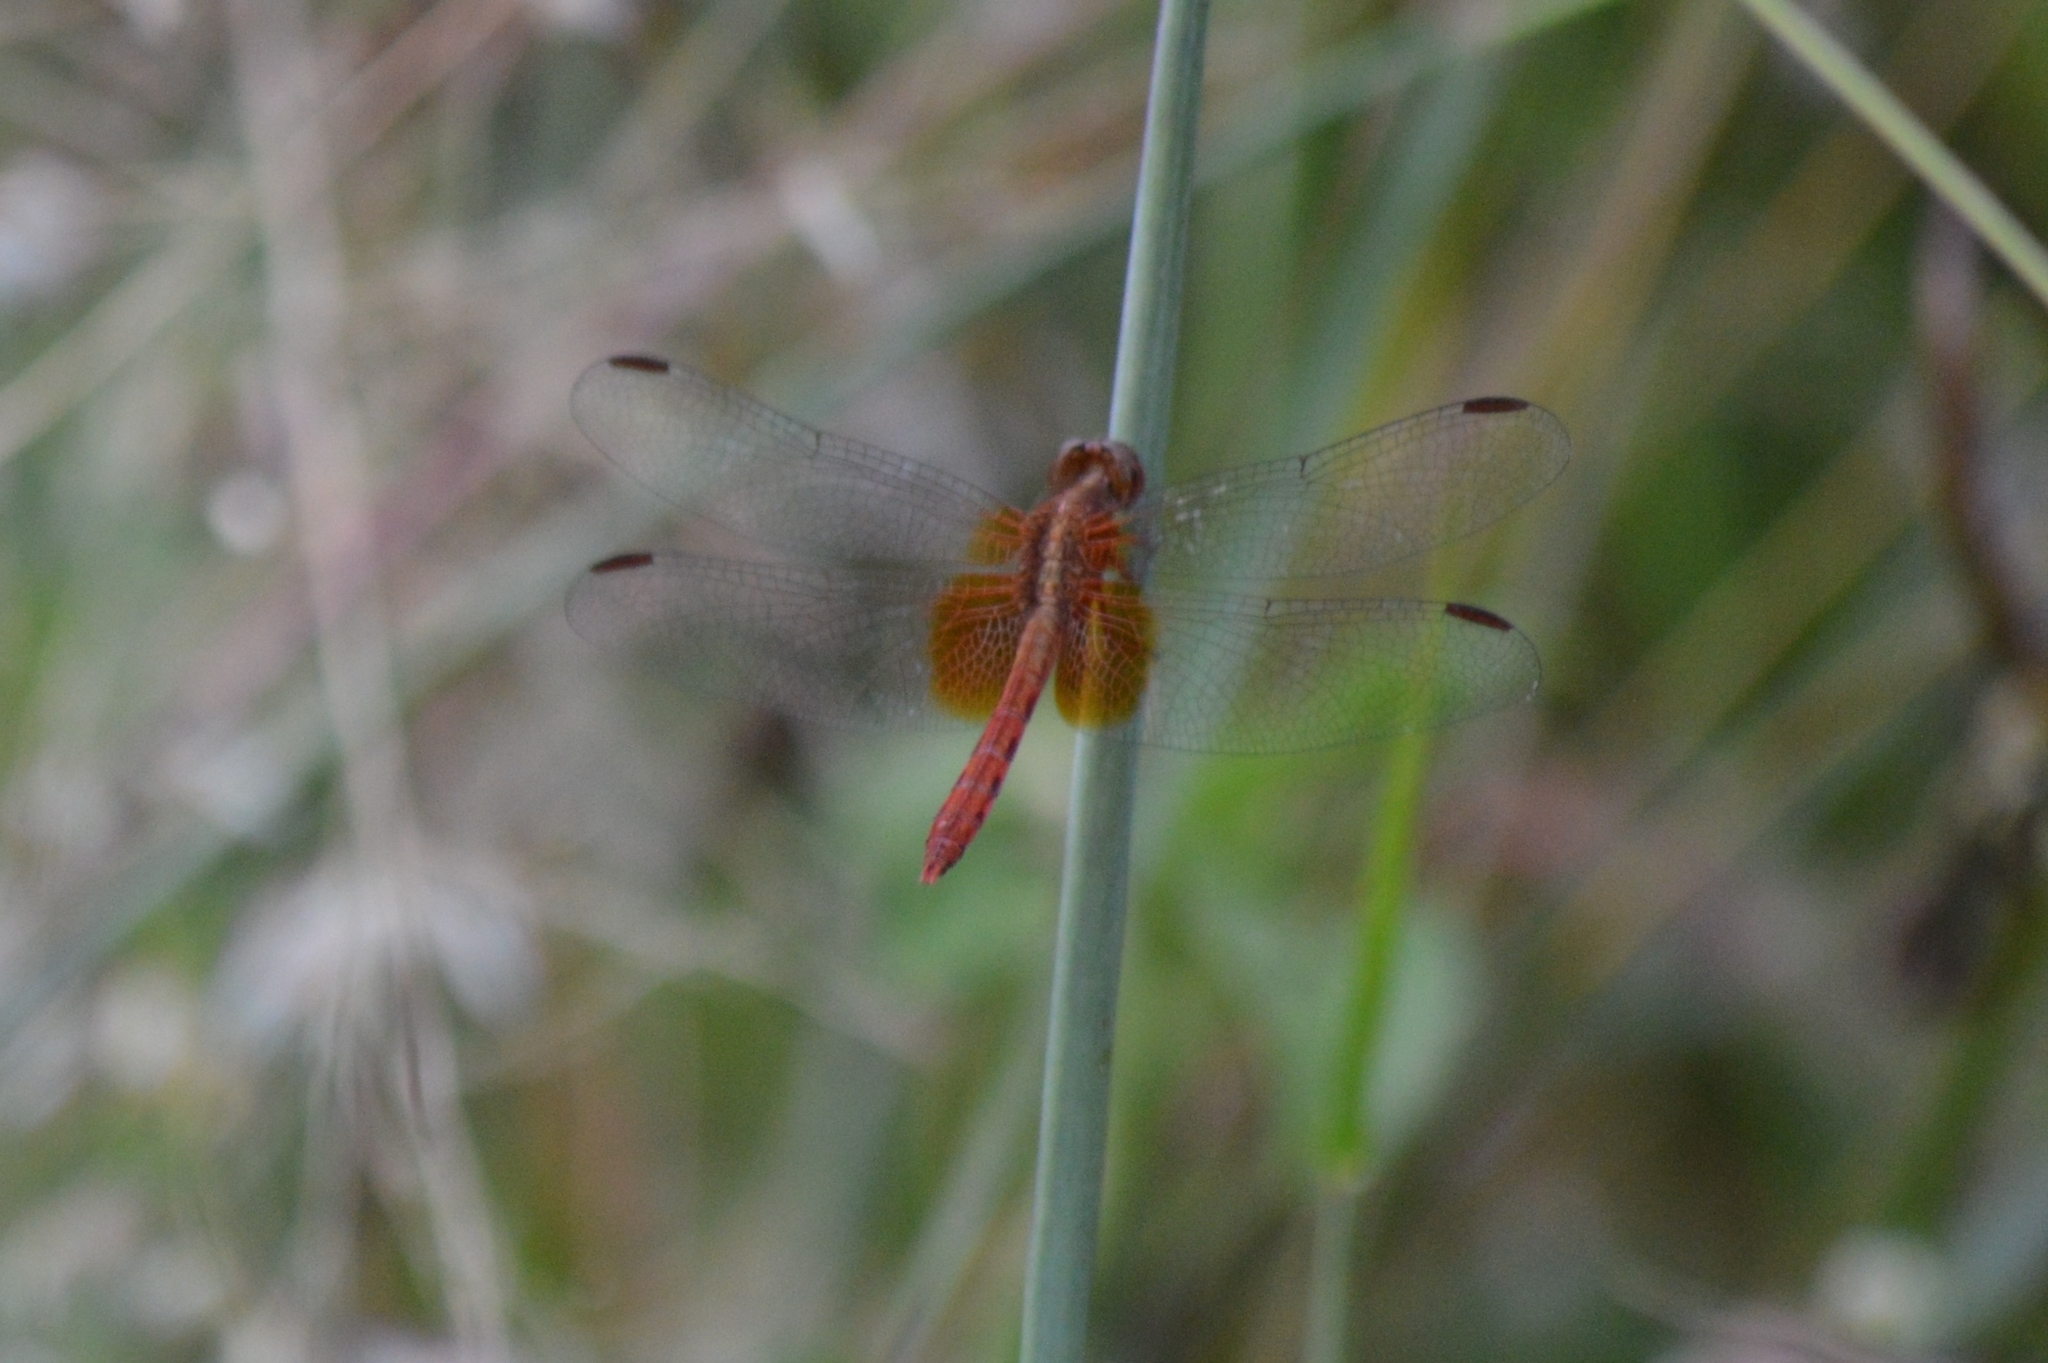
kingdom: Animalia
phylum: Arthropoda
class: Insecta
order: Odonata
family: Libellulidae
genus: Erythrodiplax
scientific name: Erythrodiplax ochracea
